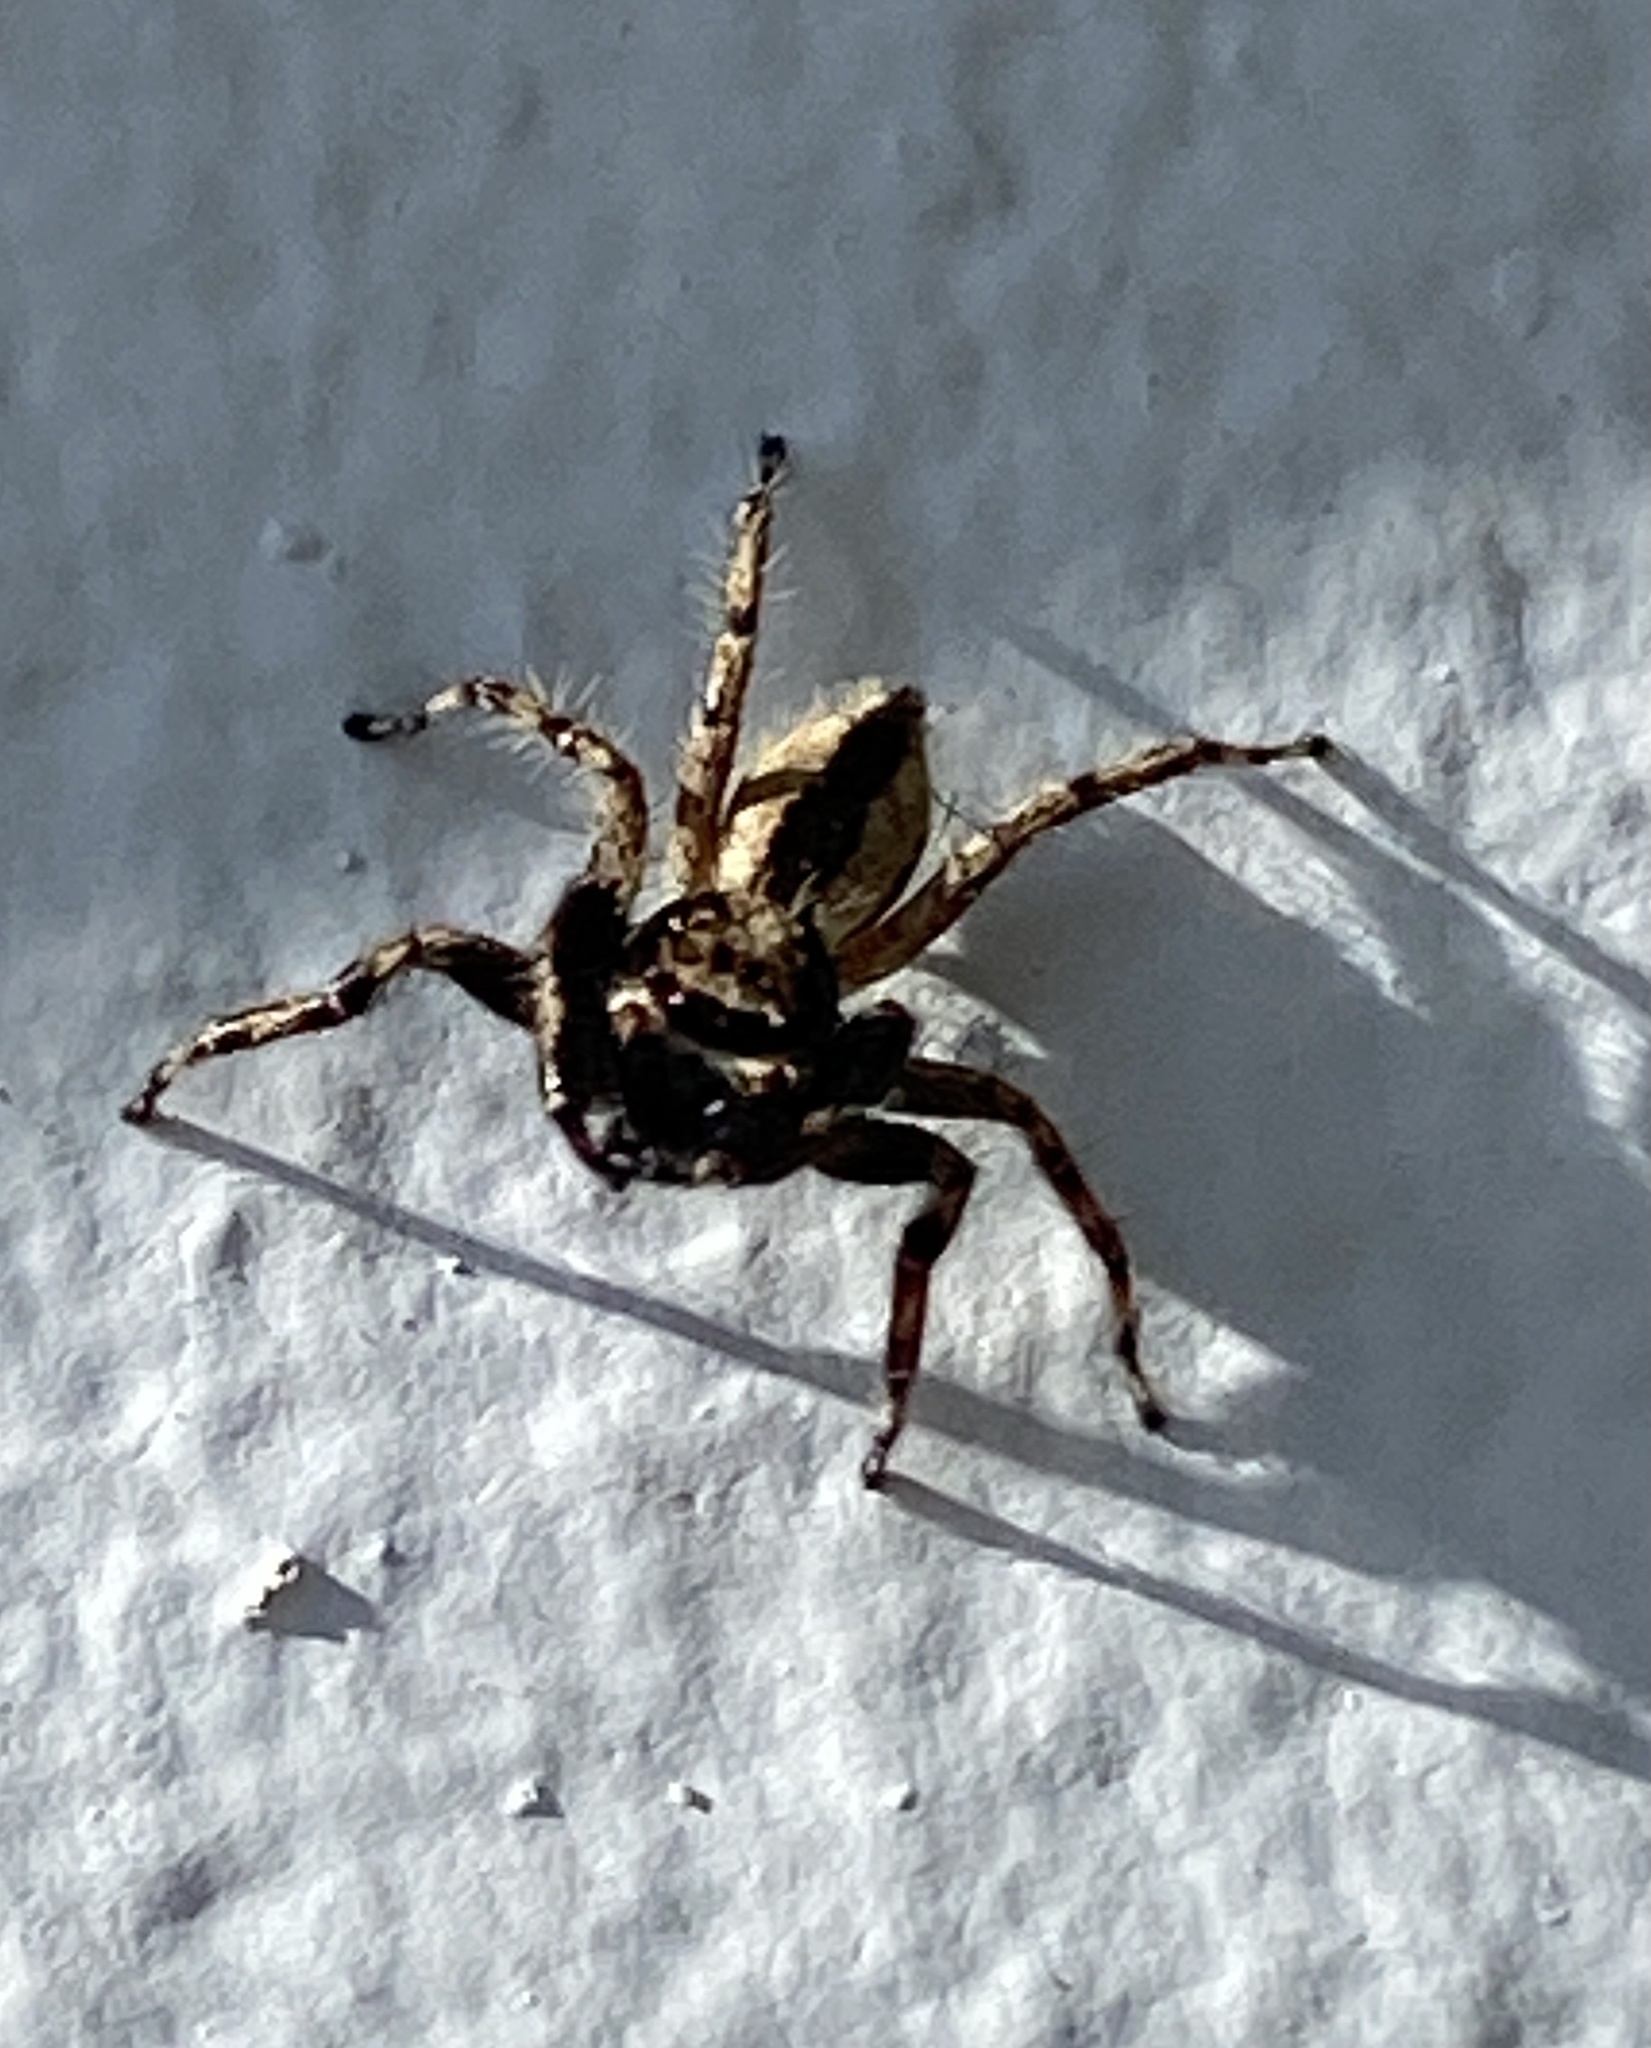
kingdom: Animalia
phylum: Arthropoda
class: Arachnida
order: Araneae
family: Salticidae
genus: Menemerus
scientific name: Menemerus bivittatus
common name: Gray wall jumper
